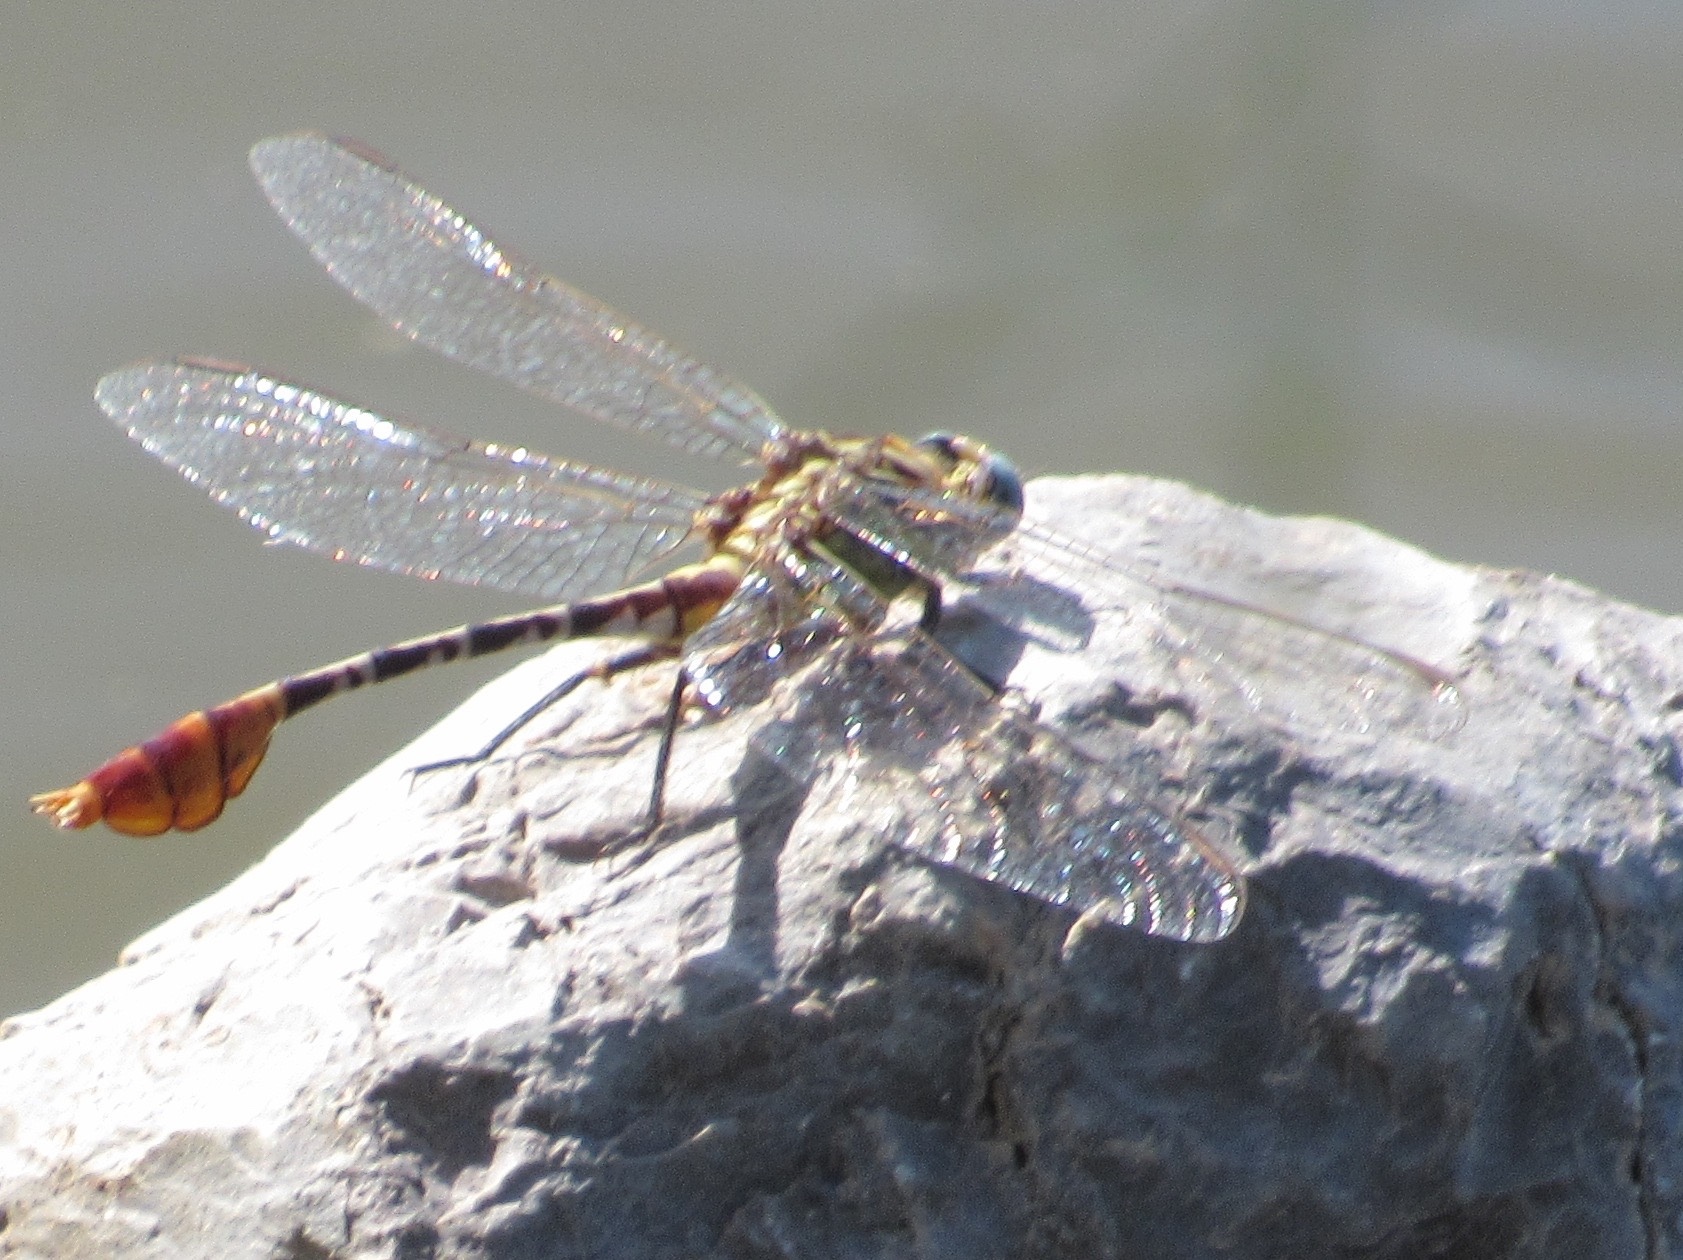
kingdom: Animalia
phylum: Arthropoda
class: Insecta
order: Odonata
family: Gomphidae
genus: Dromogomphus
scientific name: Dromogomphus spoliatus
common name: Flag-tailed spinyleg
